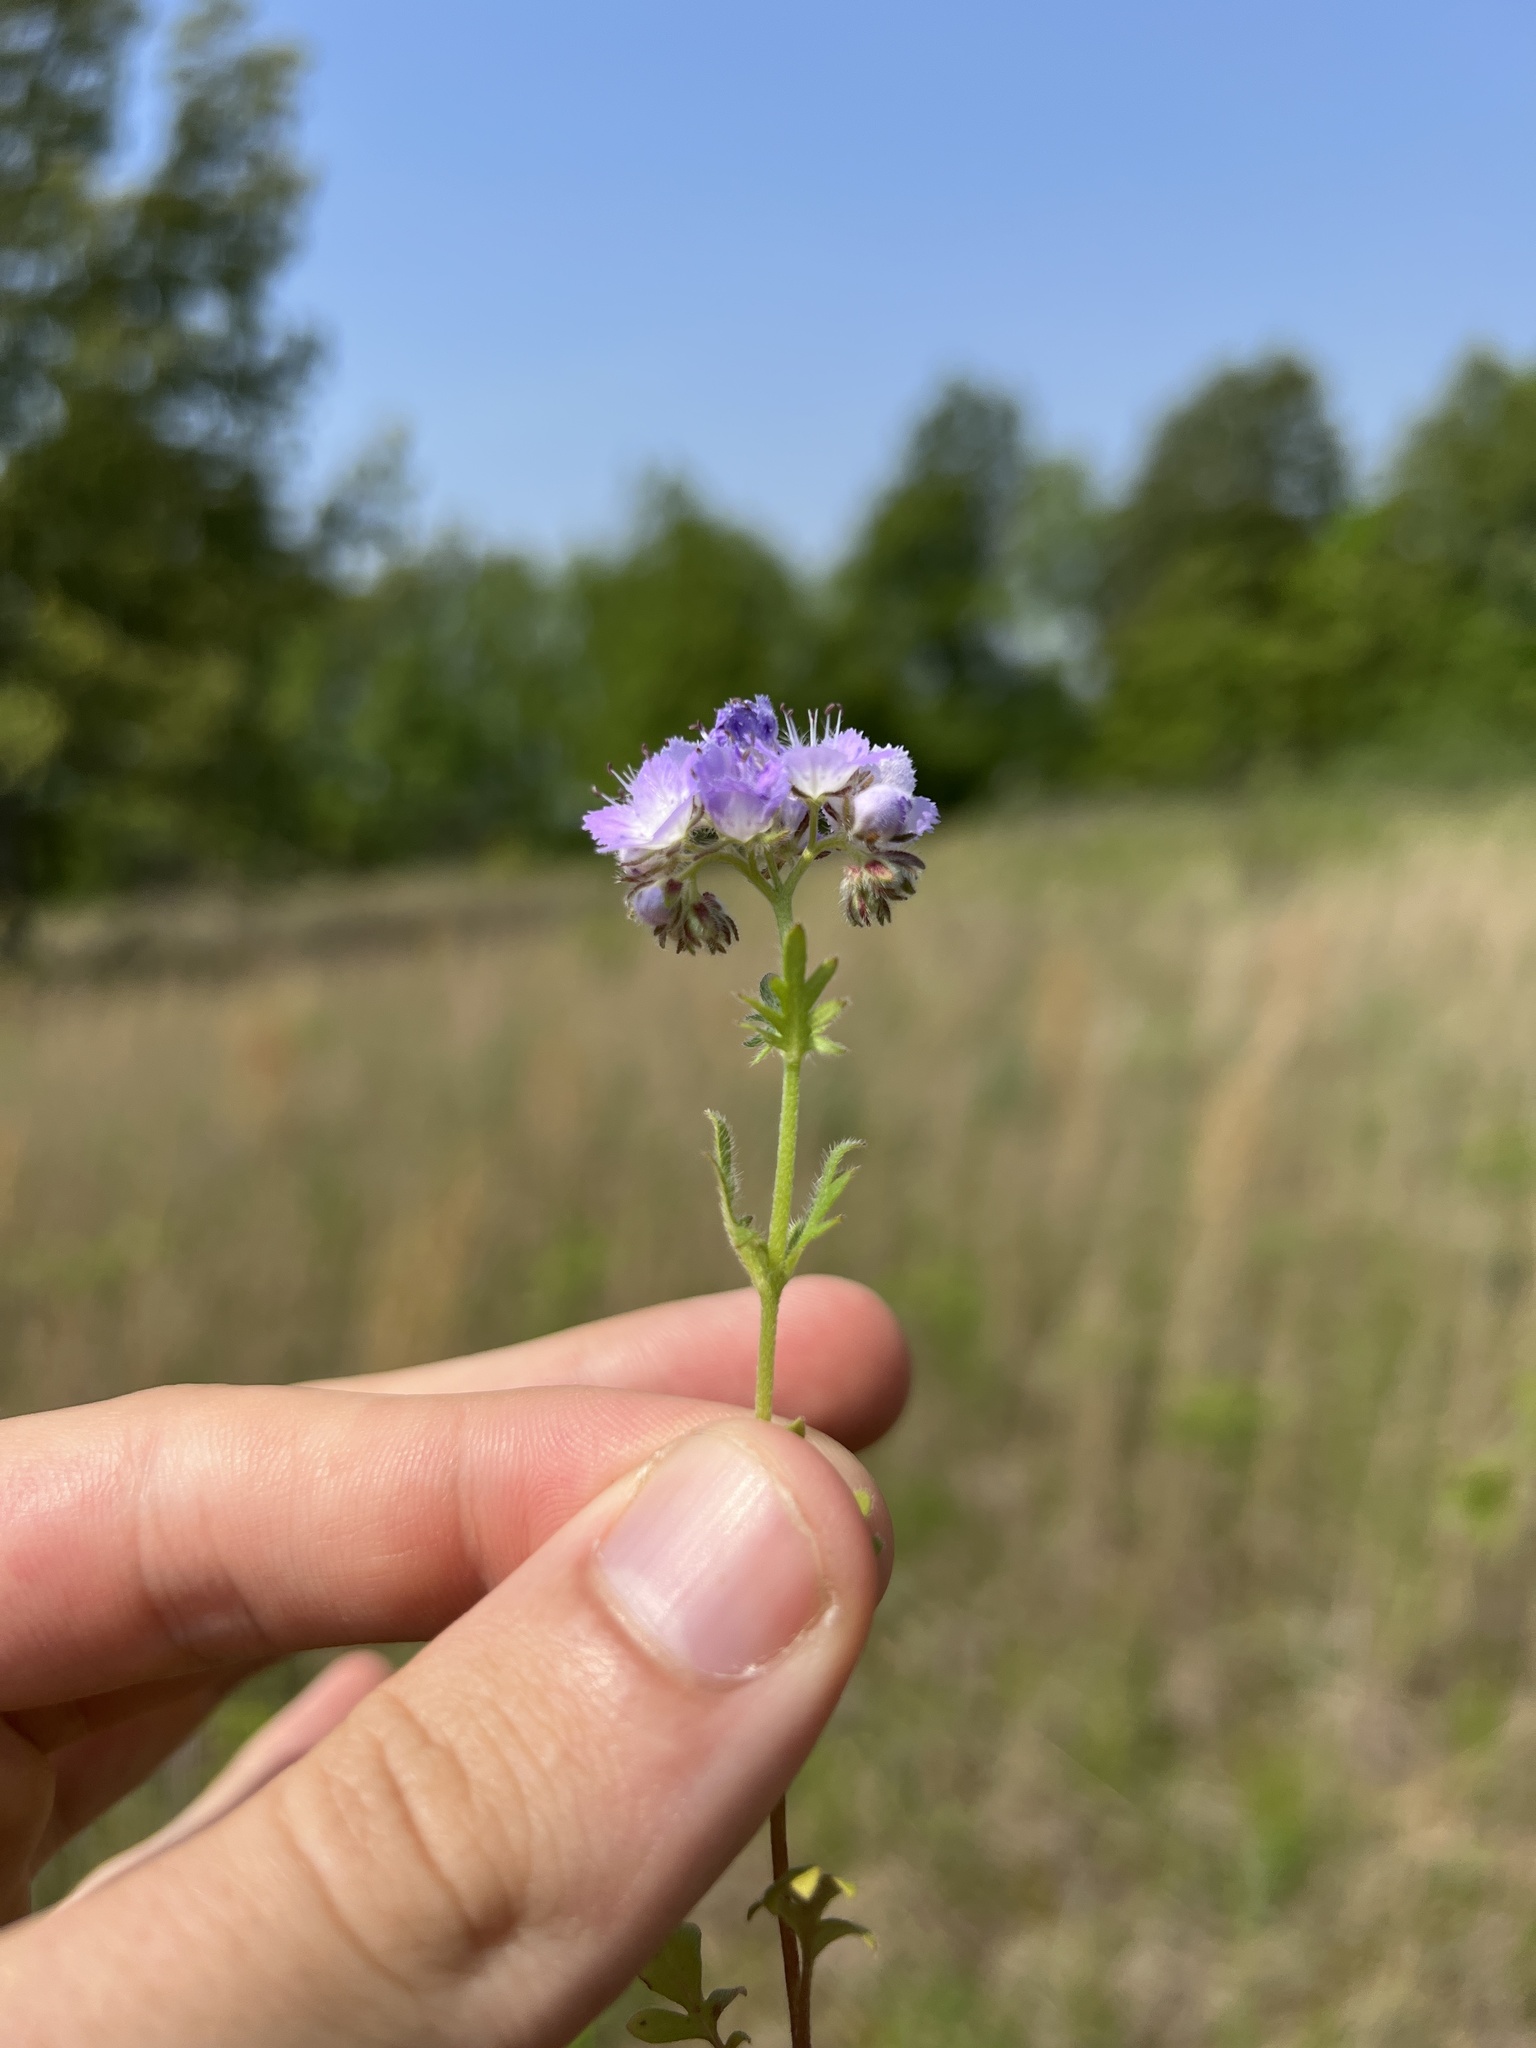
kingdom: Plantae
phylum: Tracheophyta
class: Magnoliopsida
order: Boraginales
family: Hydrophyllaceae
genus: Phacelia
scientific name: Phacelia hirsuta
